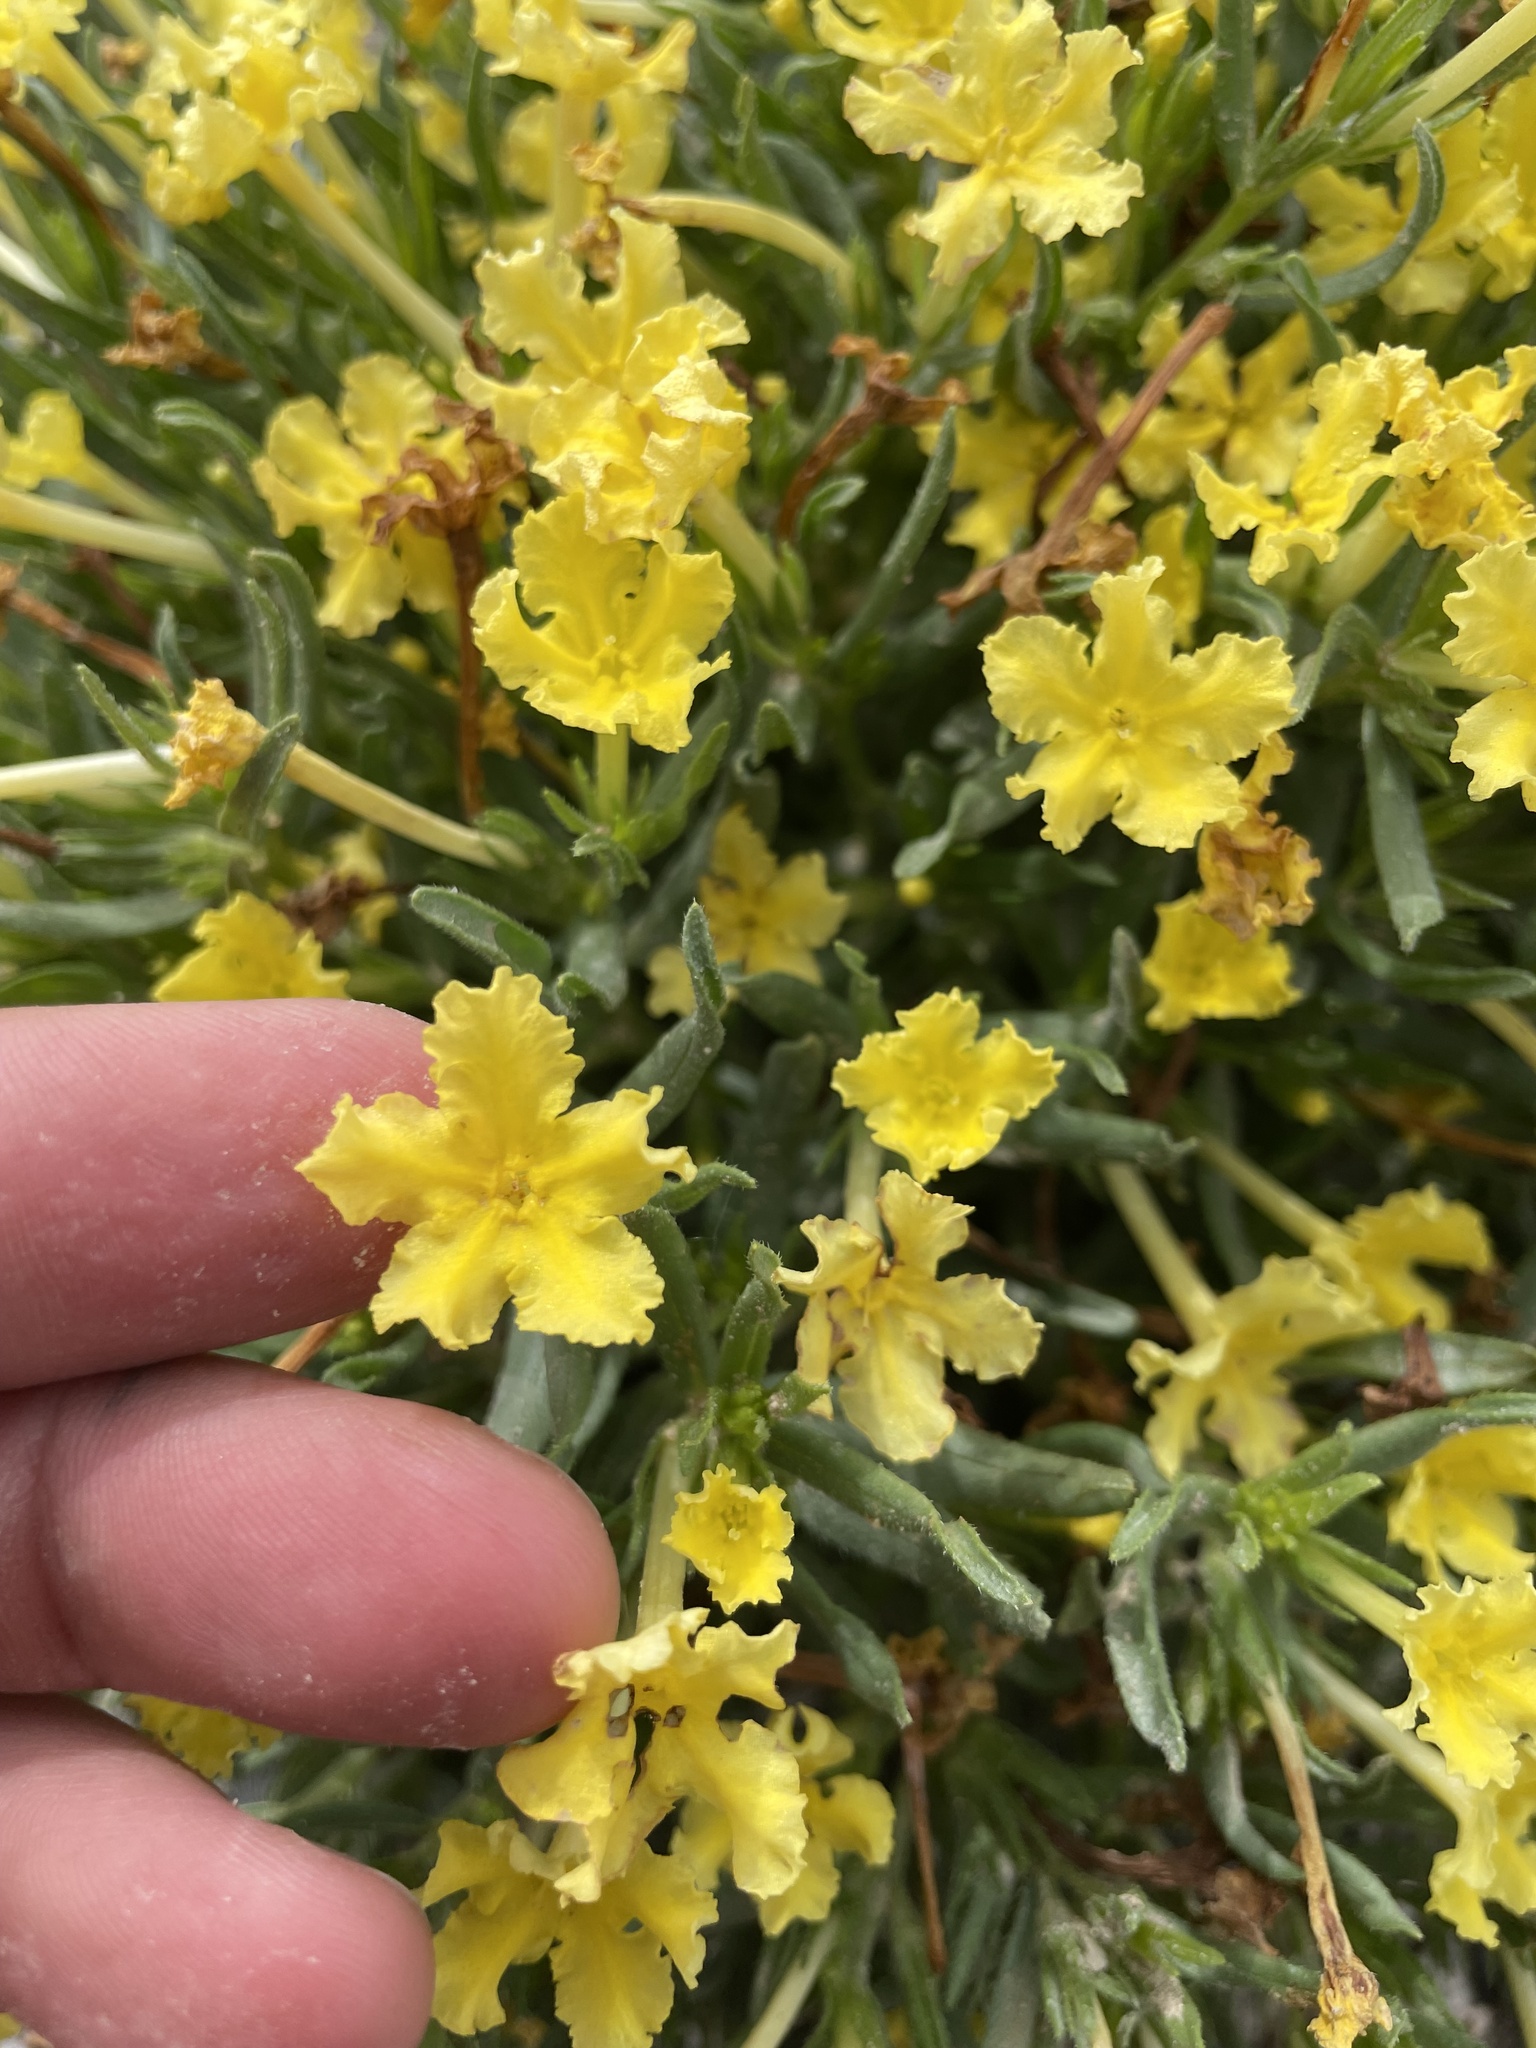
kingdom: Plantae
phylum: Tracheophyta
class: Magnoliopsida
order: Boraginales
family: Boraginaceae
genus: Lithospermum
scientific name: Lithospermum incisum
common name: Fringed gromwell
